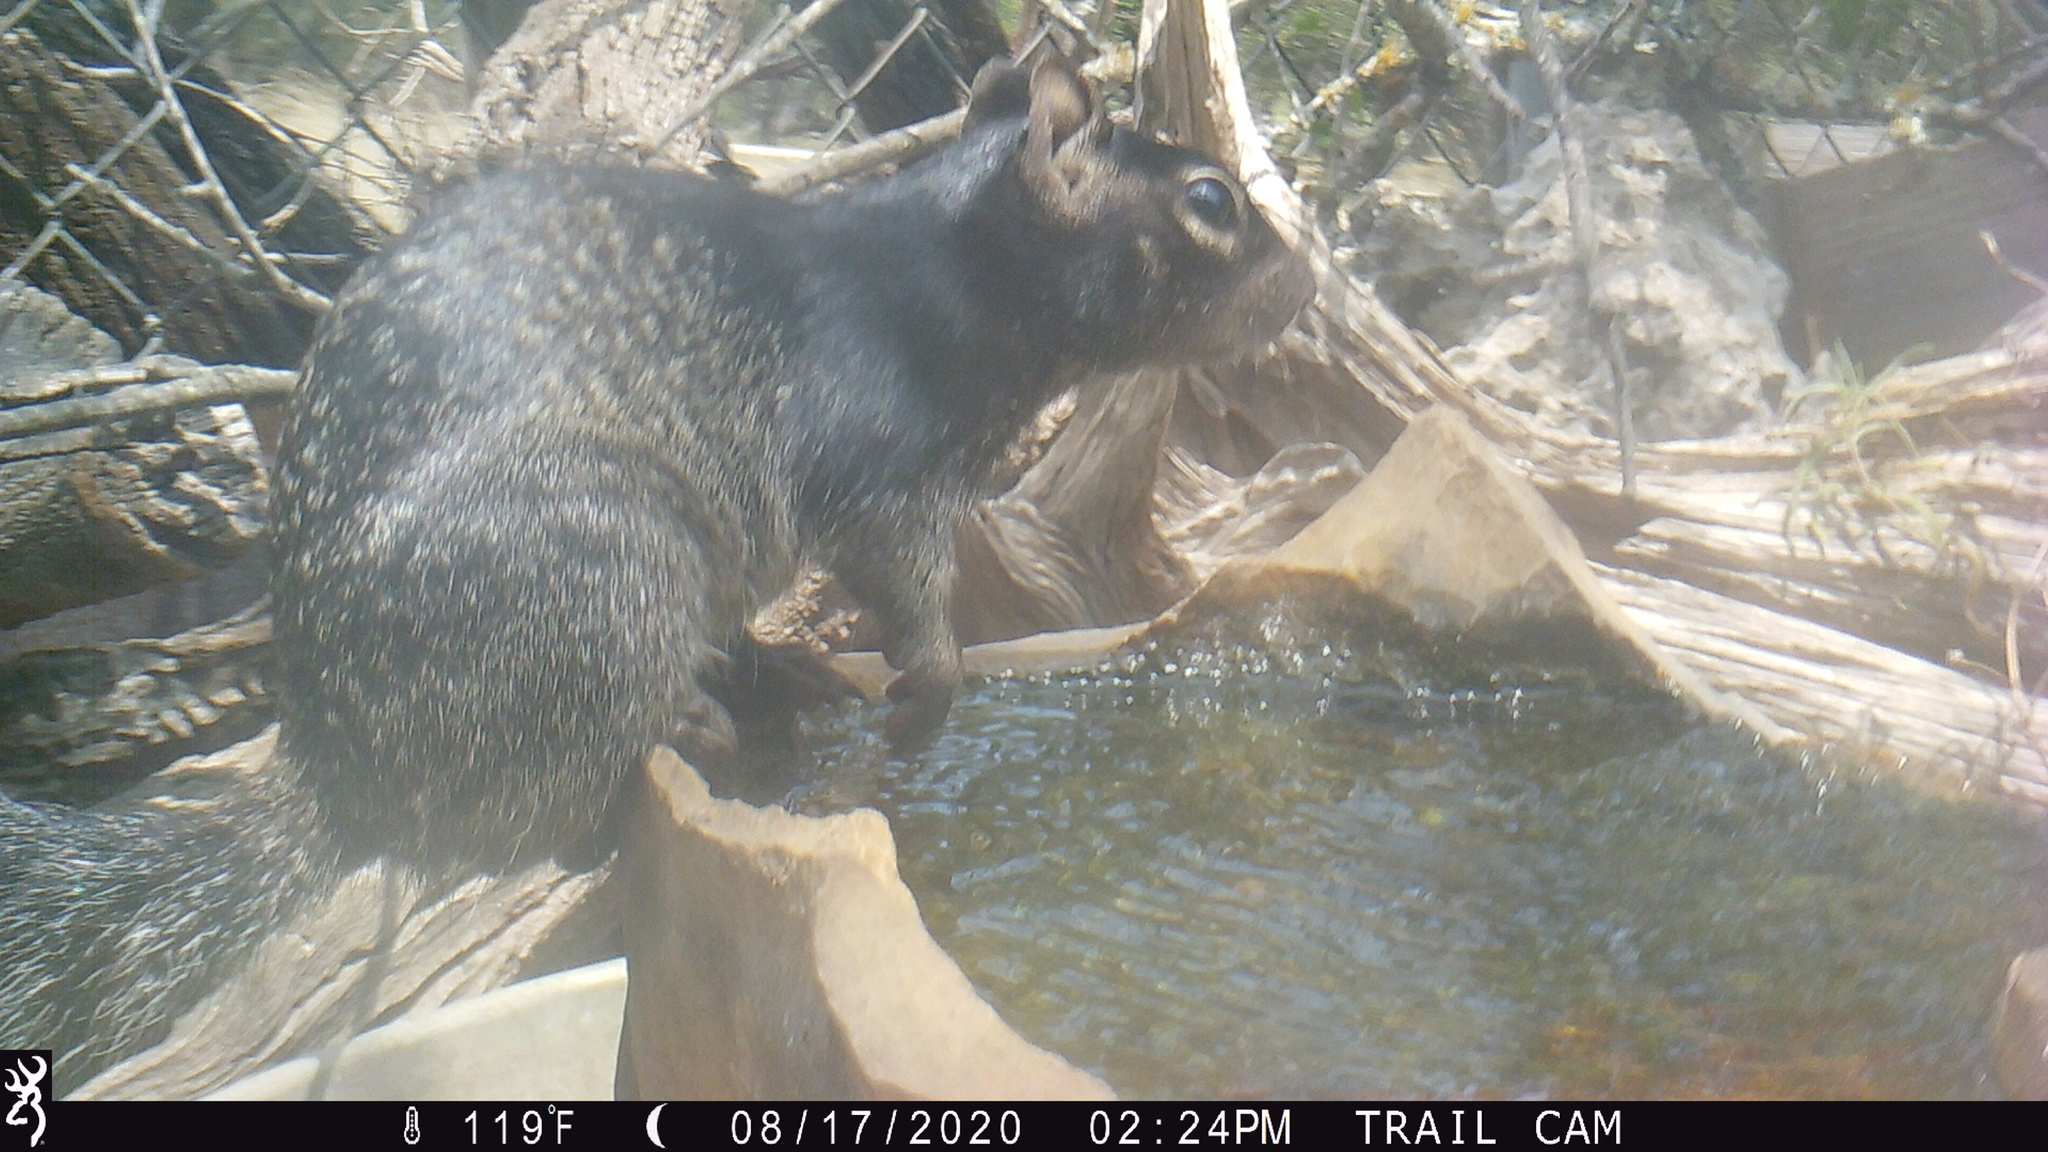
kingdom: Animalia
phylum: Chordata
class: Mammalia
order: Rodentia
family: Sciuridae
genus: Otospermophilus
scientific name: Otospermophilus variegatus
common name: Rock squirrel
